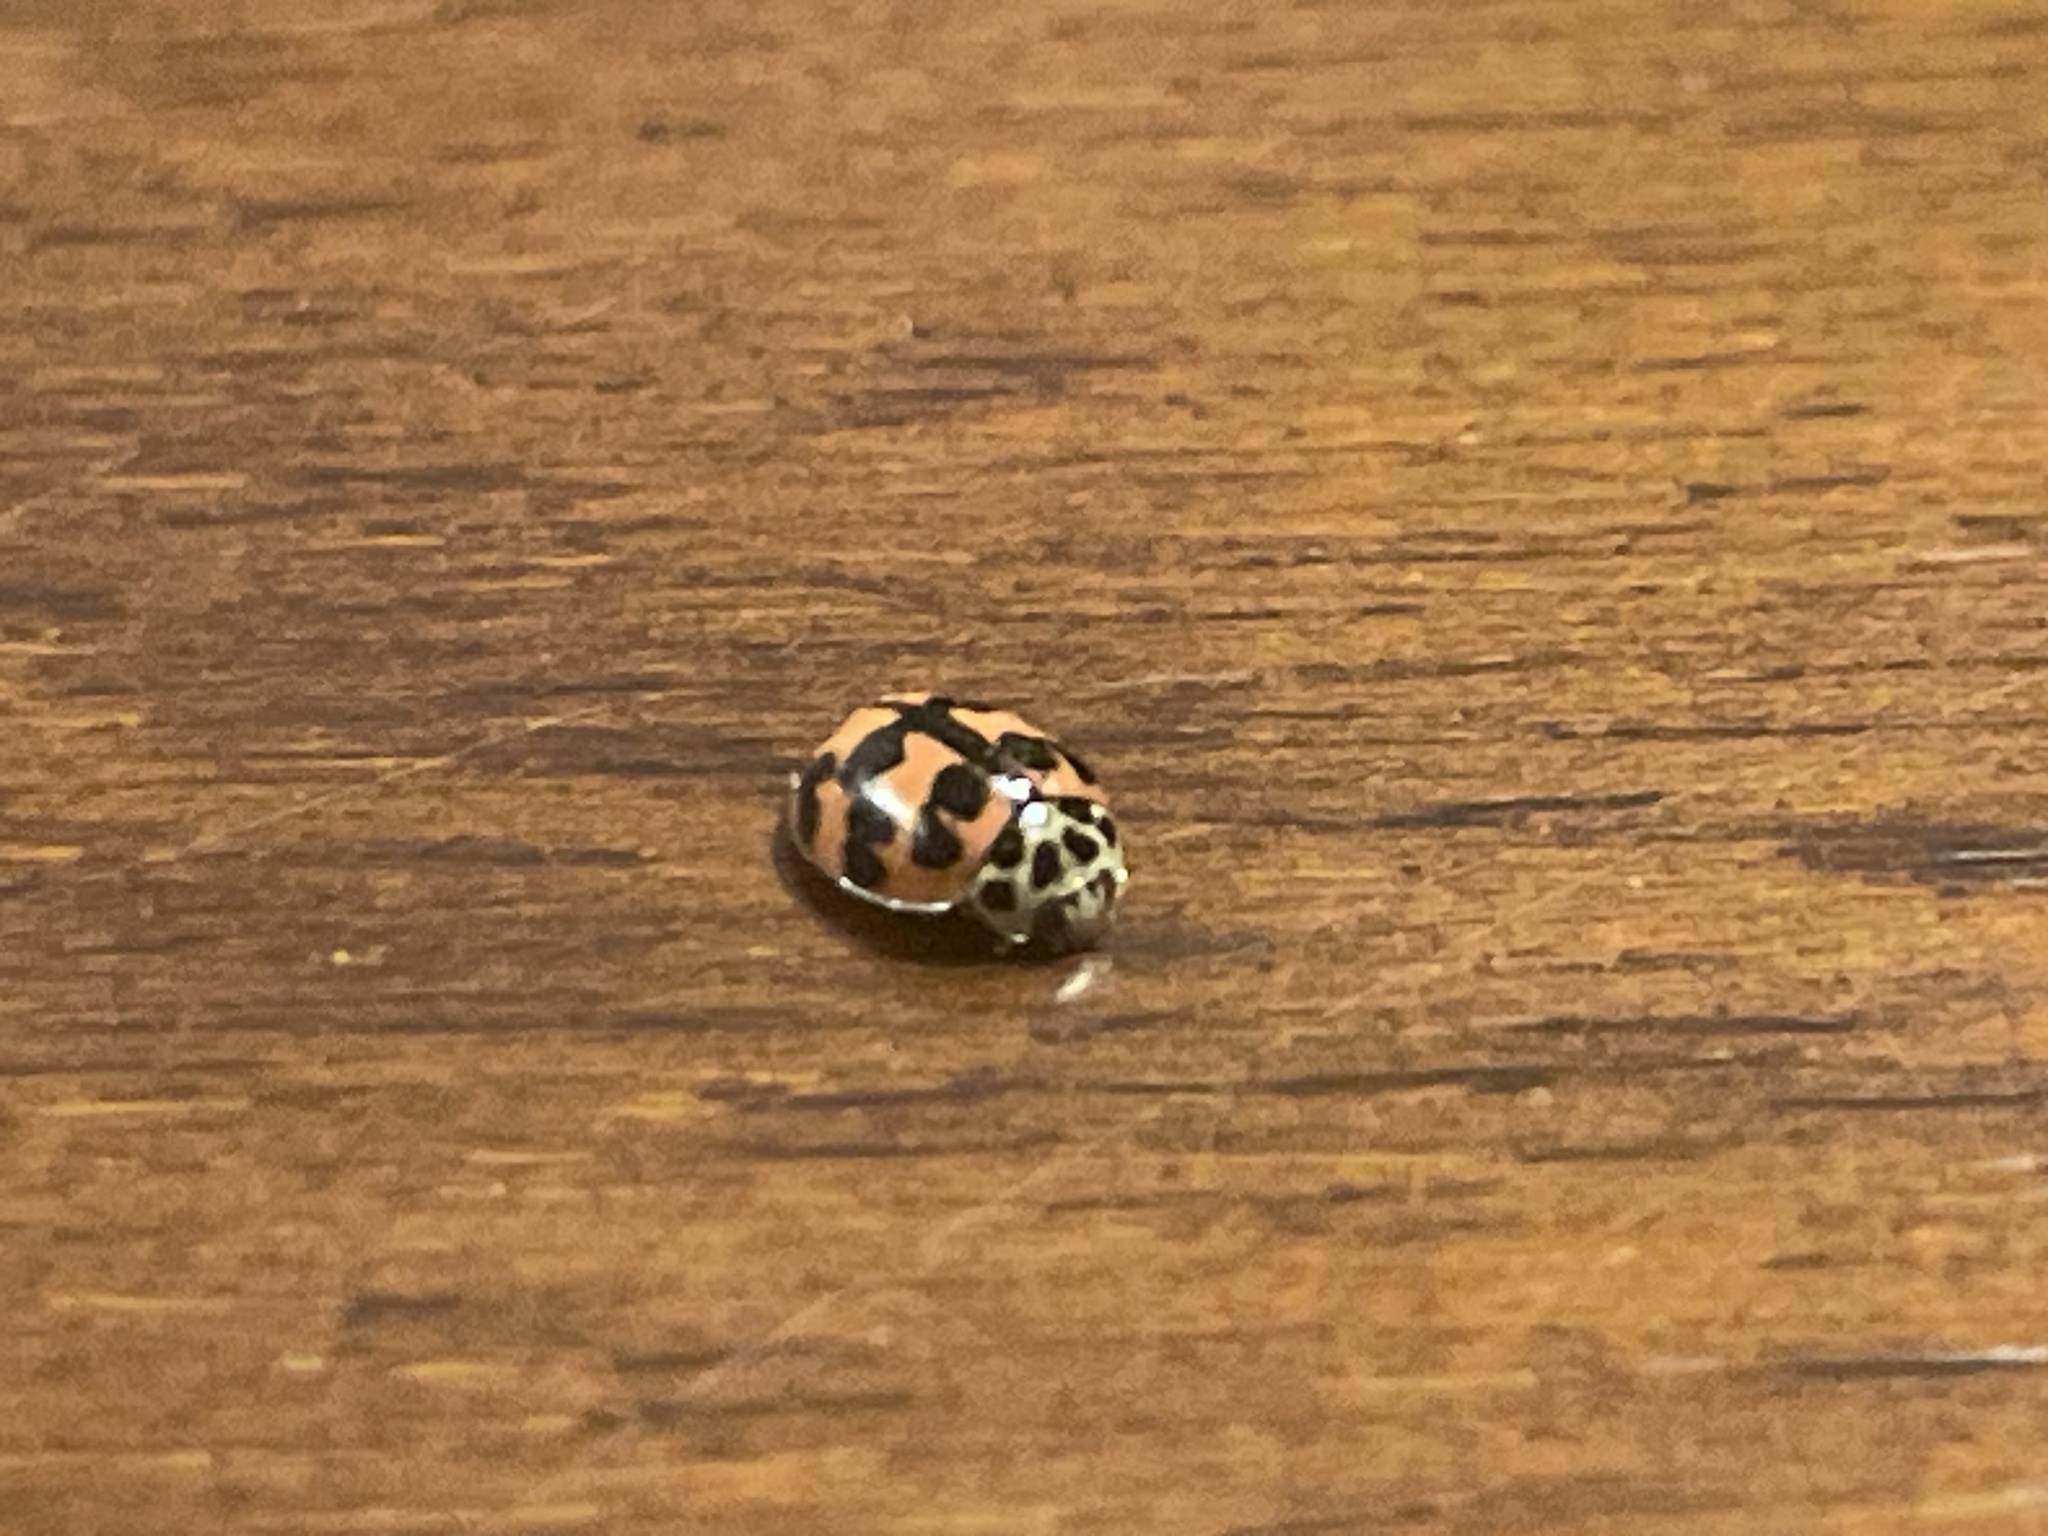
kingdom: Animalia
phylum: Arthropoda
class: Insecta
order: Coleoptera
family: Coccinellidae
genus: Oenopia
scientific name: Oenopia conglobata
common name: Ladybird beetle
